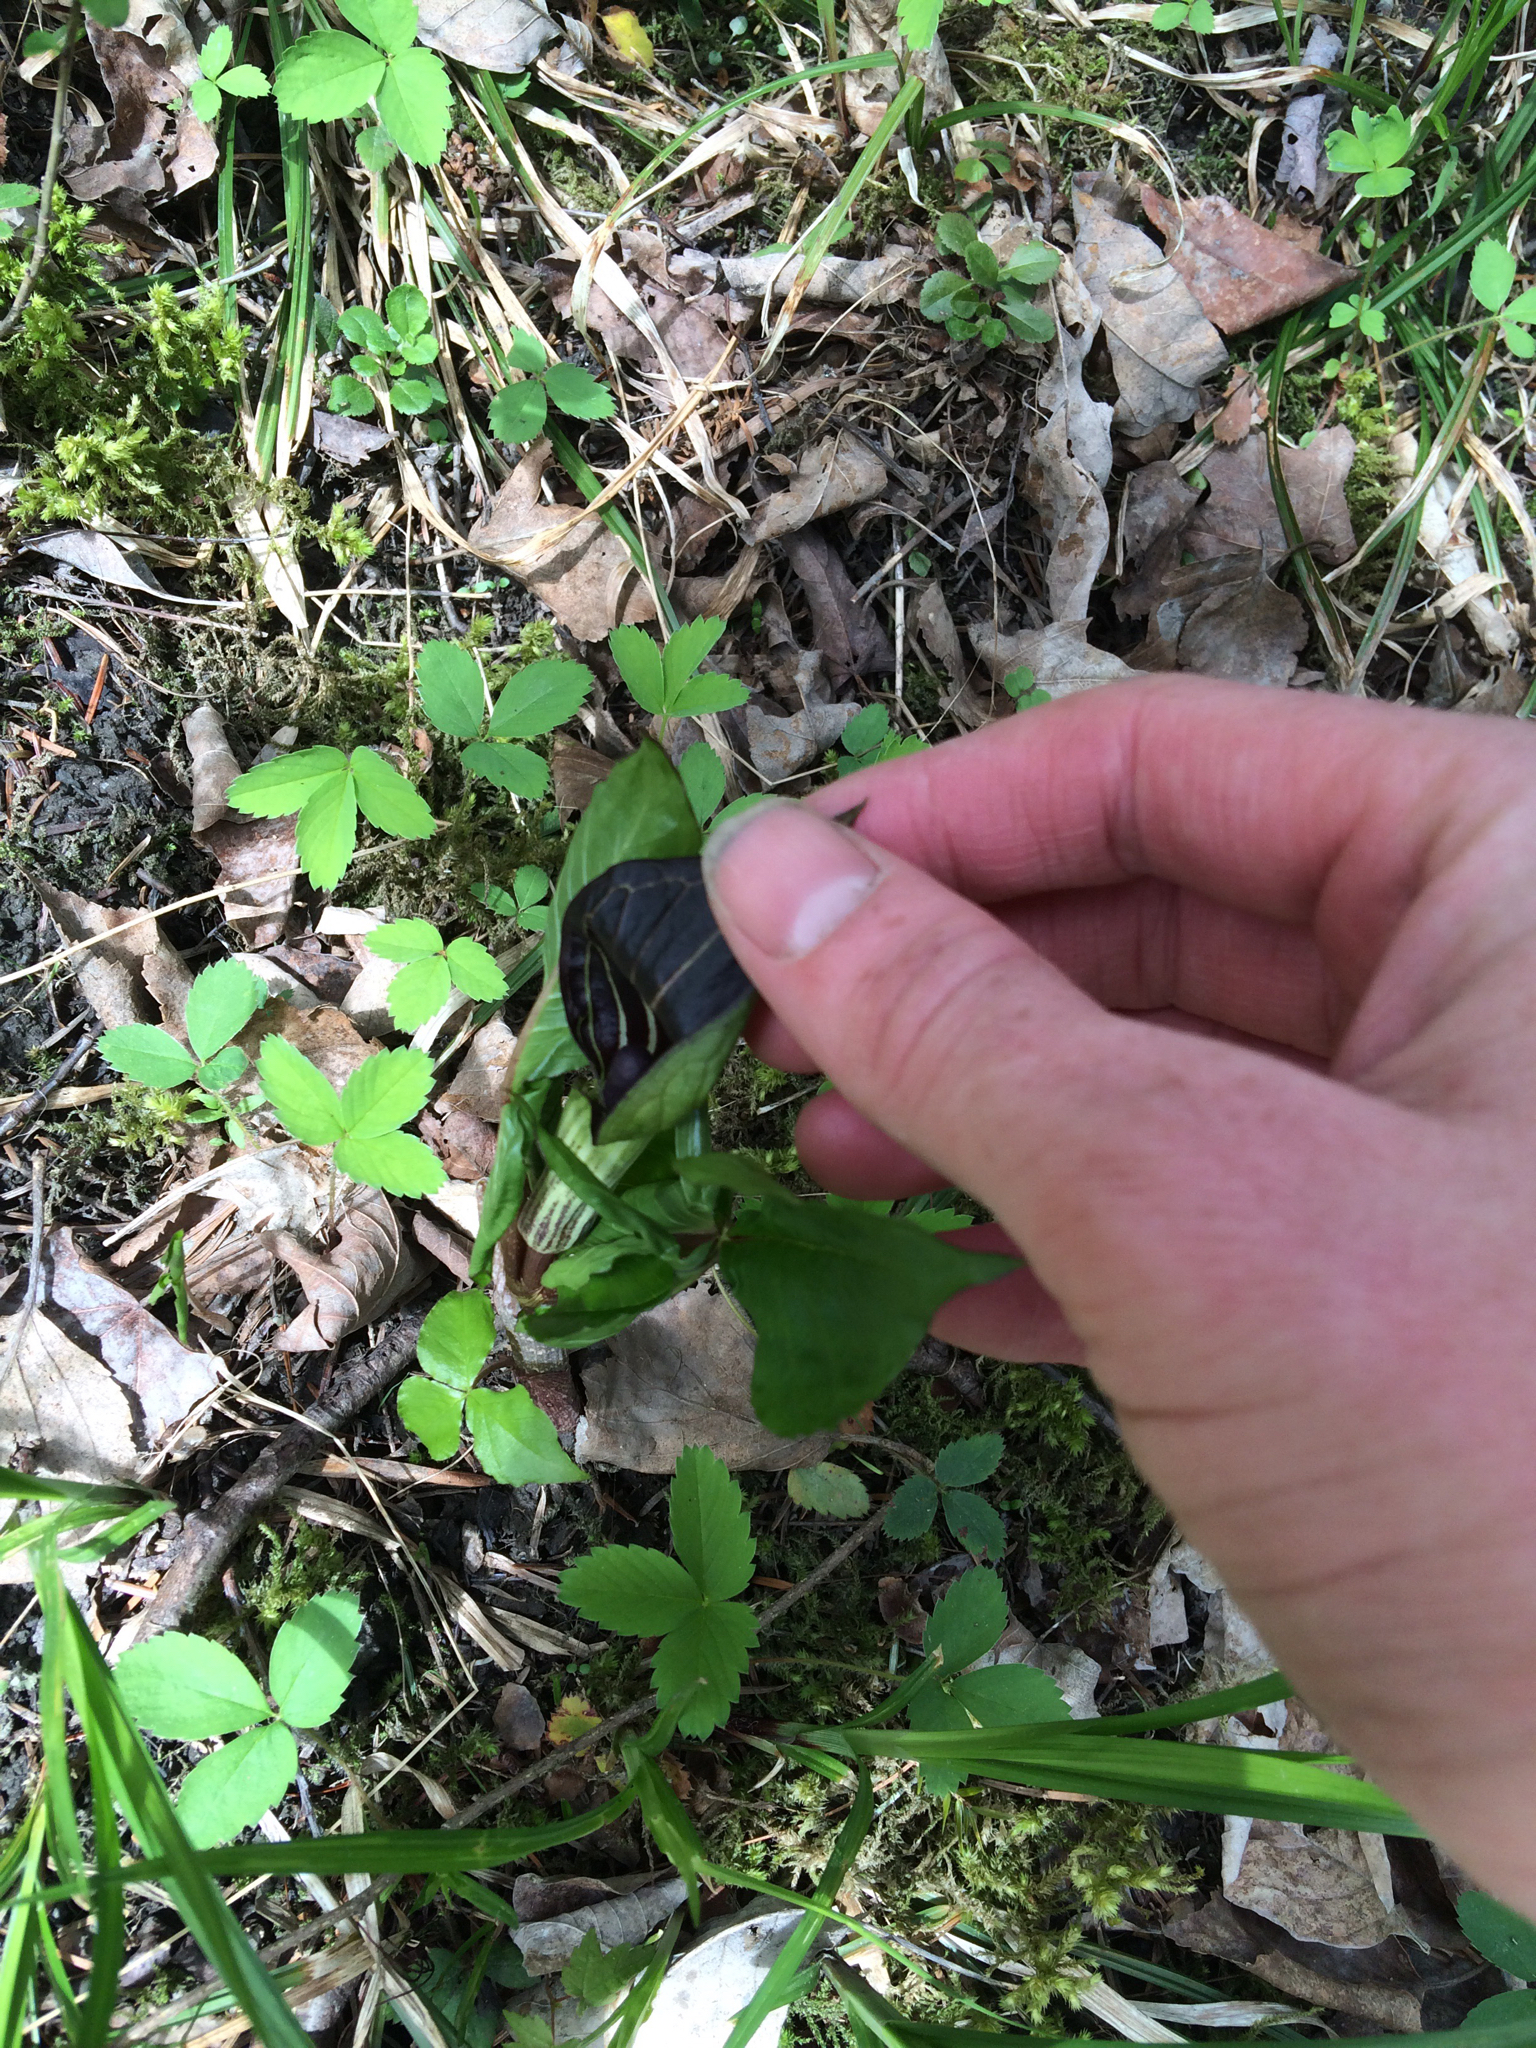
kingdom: Plantae
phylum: Tracheophyta
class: Liliopsida
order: Alismatales
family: Araceae
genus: Arisaema
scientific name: Arisaema triphyllum
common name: Jack-in-the-pulpit
